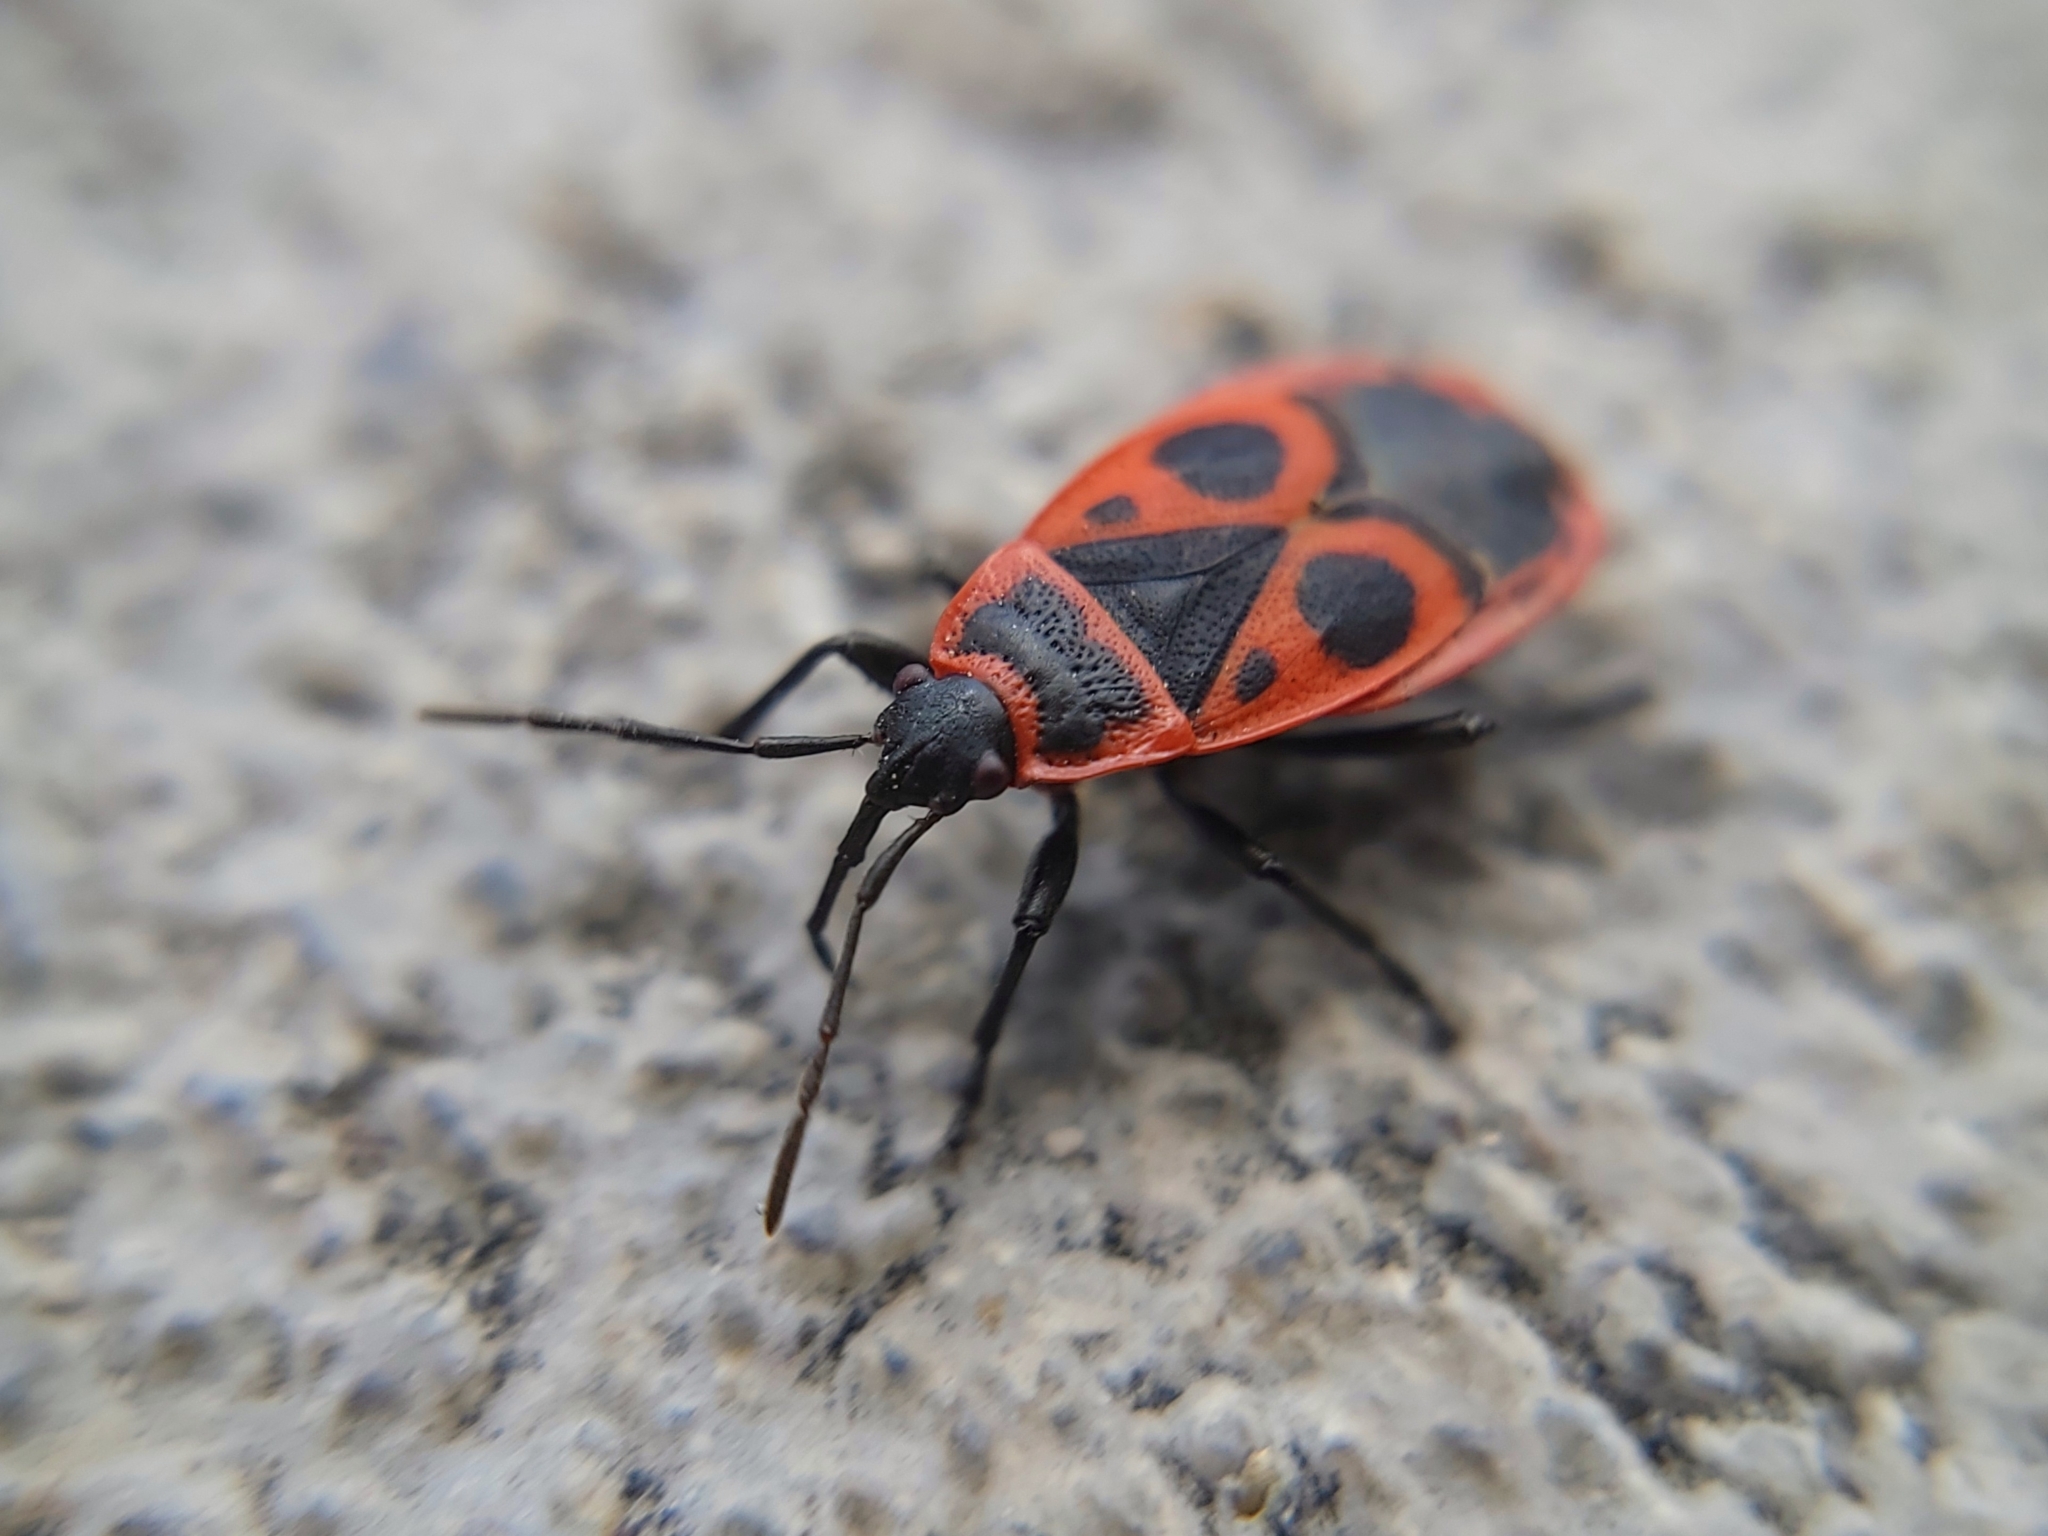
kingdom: Animalia
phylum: Arthropoda
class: Insecta
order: Hemiptera
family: Pyrrhocoridae
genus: Pyrrhocoris
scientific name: Pyrrhocoris apterus
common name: Firebug
